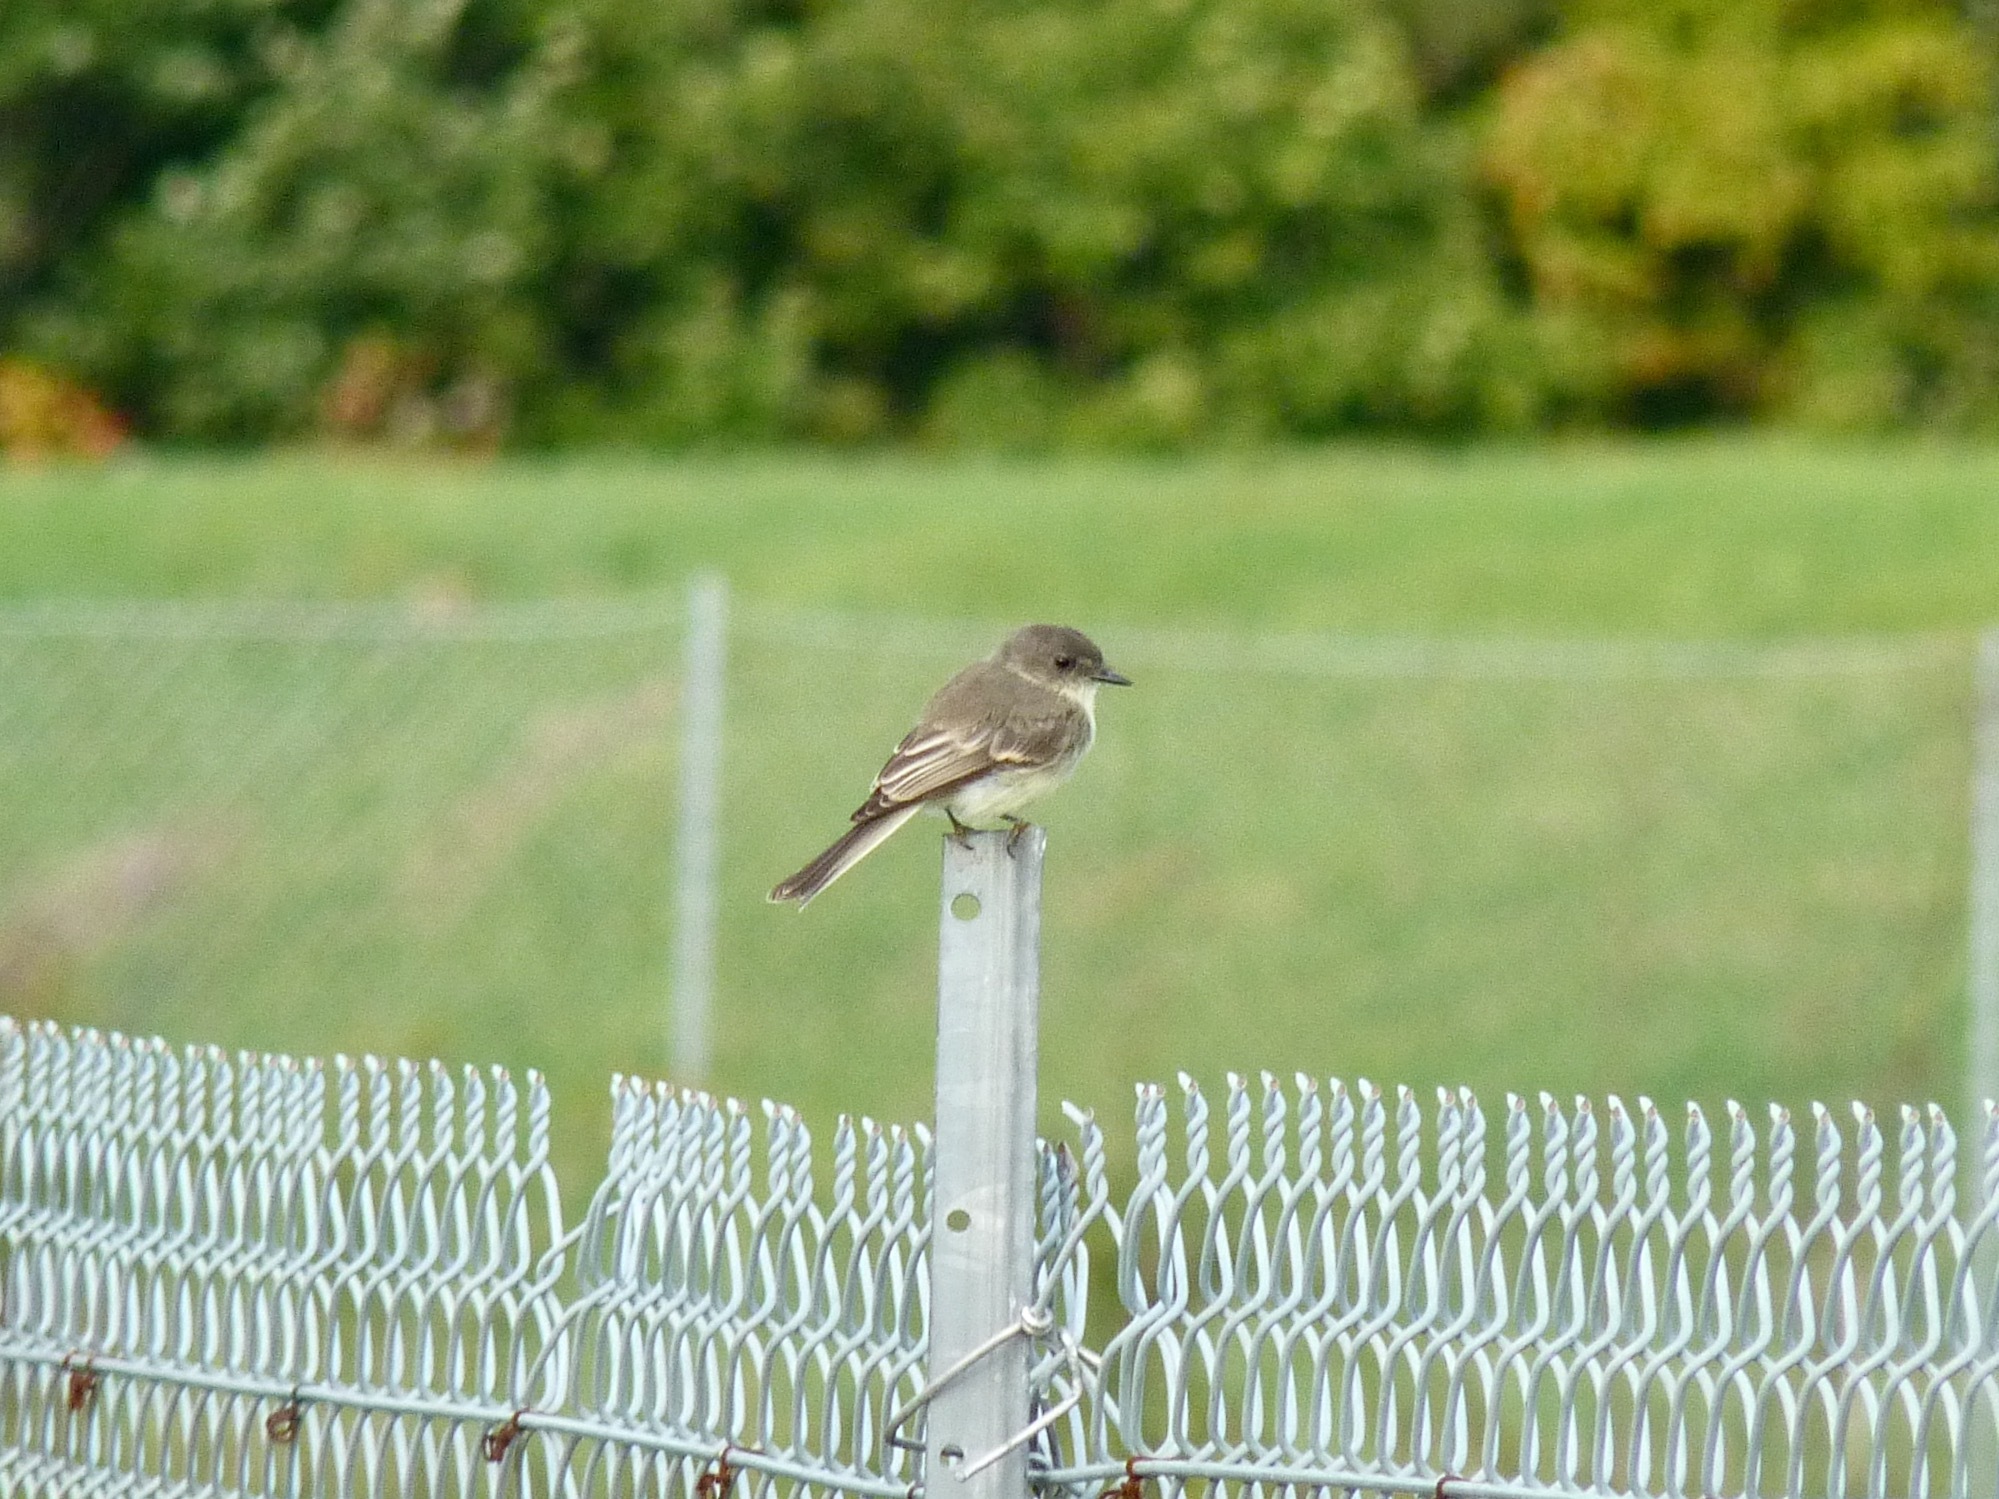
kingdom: Animalia
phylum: Chordata
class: Aves
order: Passeriformes
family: Tyrannidae
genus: Sayornis
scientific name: Sayornis phoebe
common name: Eastern phoebe
